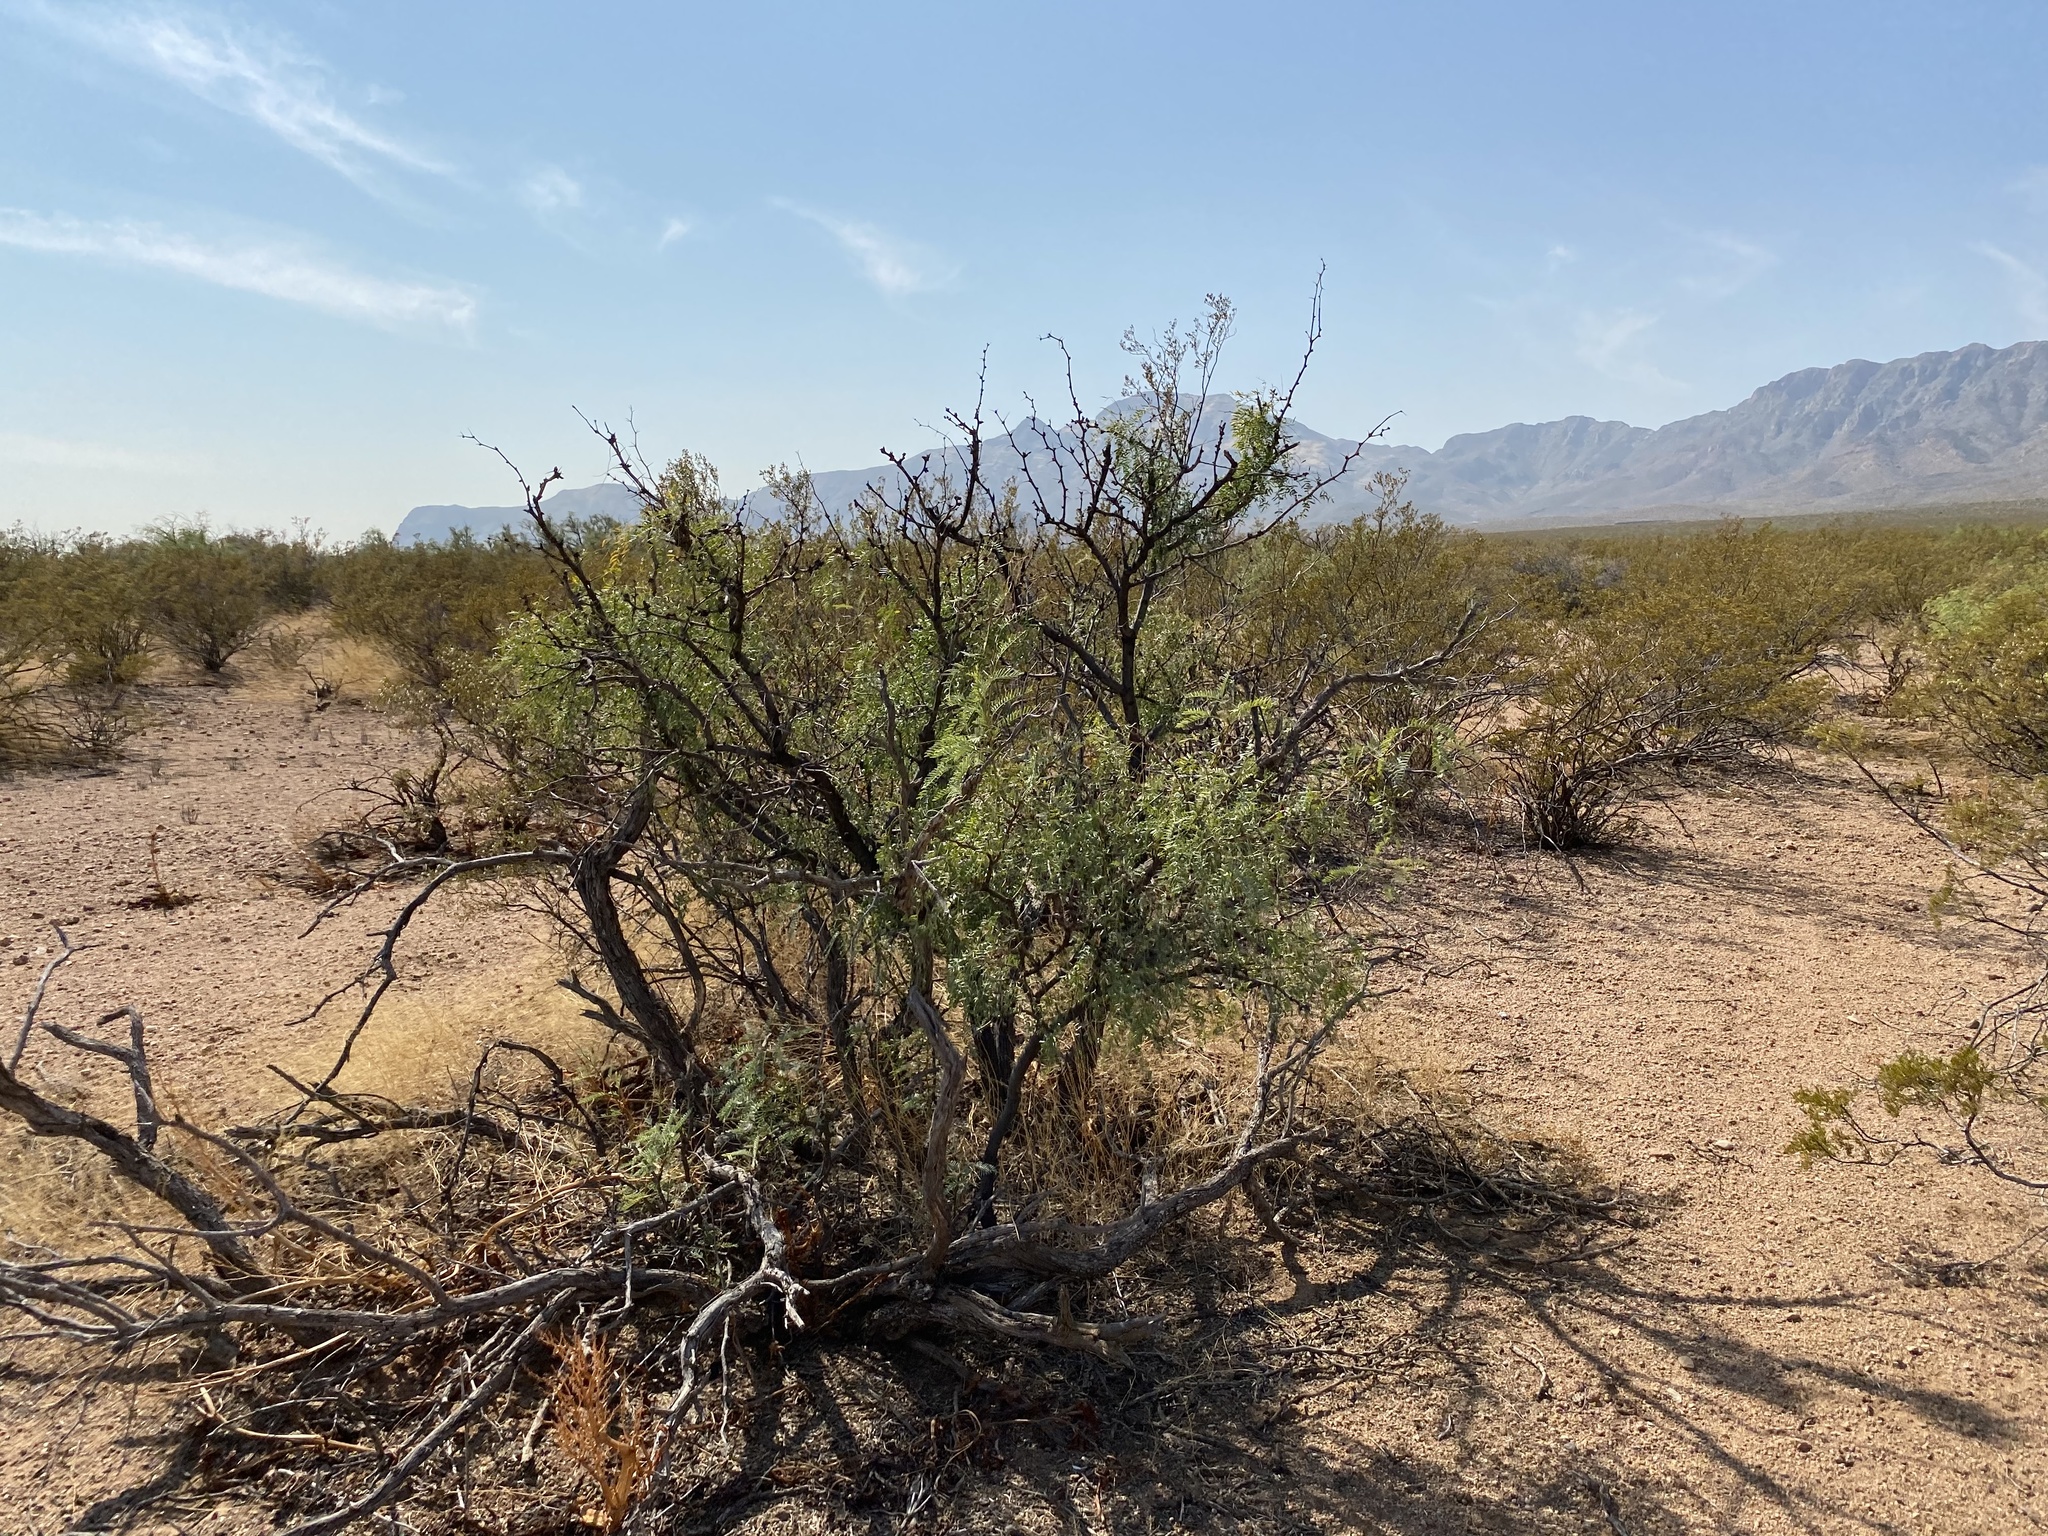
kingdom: Plantae
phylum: Tracheophyta
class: Magnoliopsida
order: Fabales
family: Fabaceae
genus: Prosopis
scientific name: Prosopis glandulosa
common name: Honey mesquite
